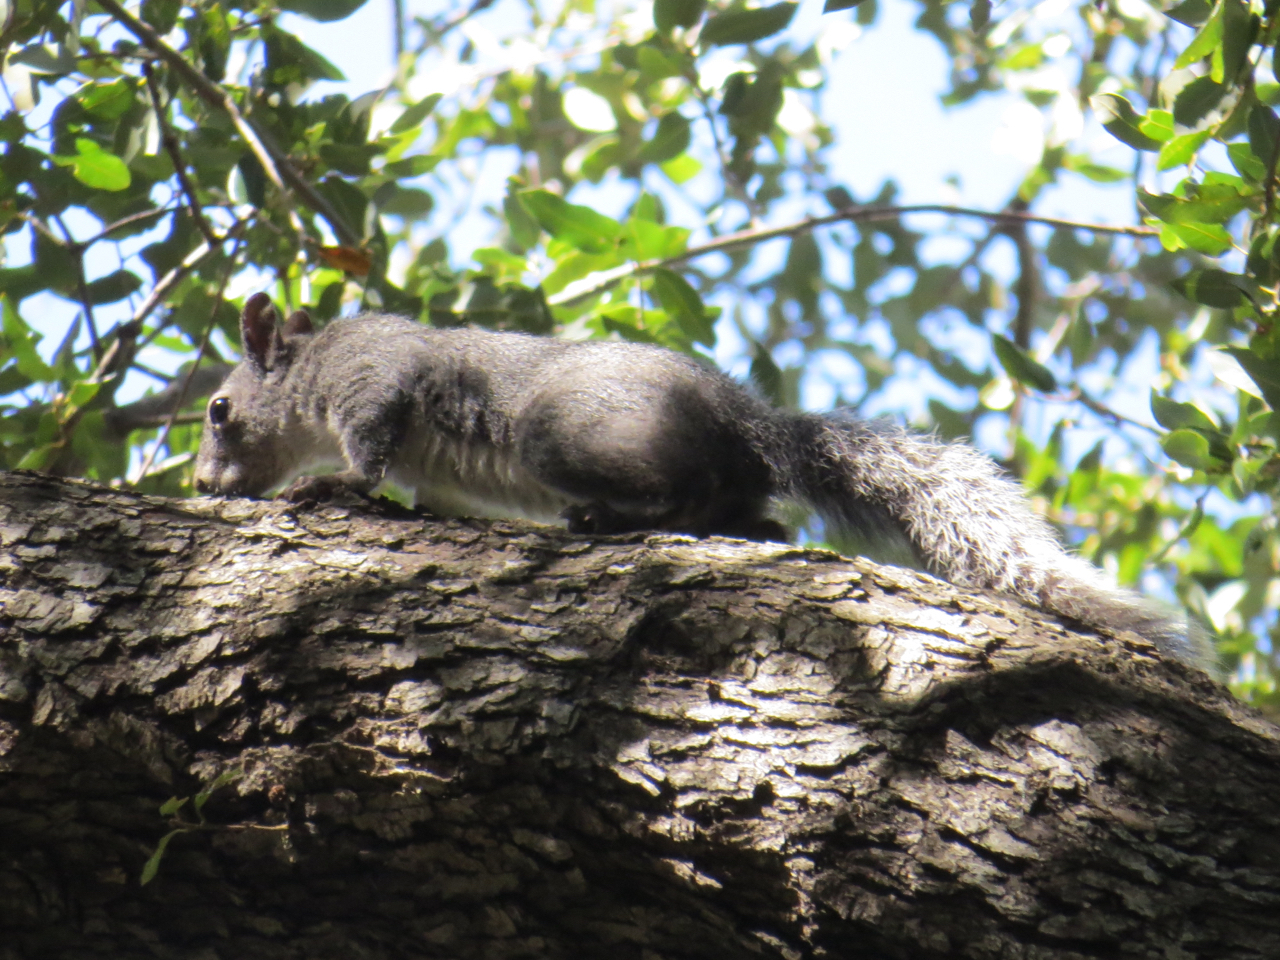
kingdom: Animalia
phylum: Chordata
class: Mammalia
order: Rodentia
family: Sciuridae
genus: Sciurus
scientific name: Sciurus griseus
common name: Western gray squirrel
